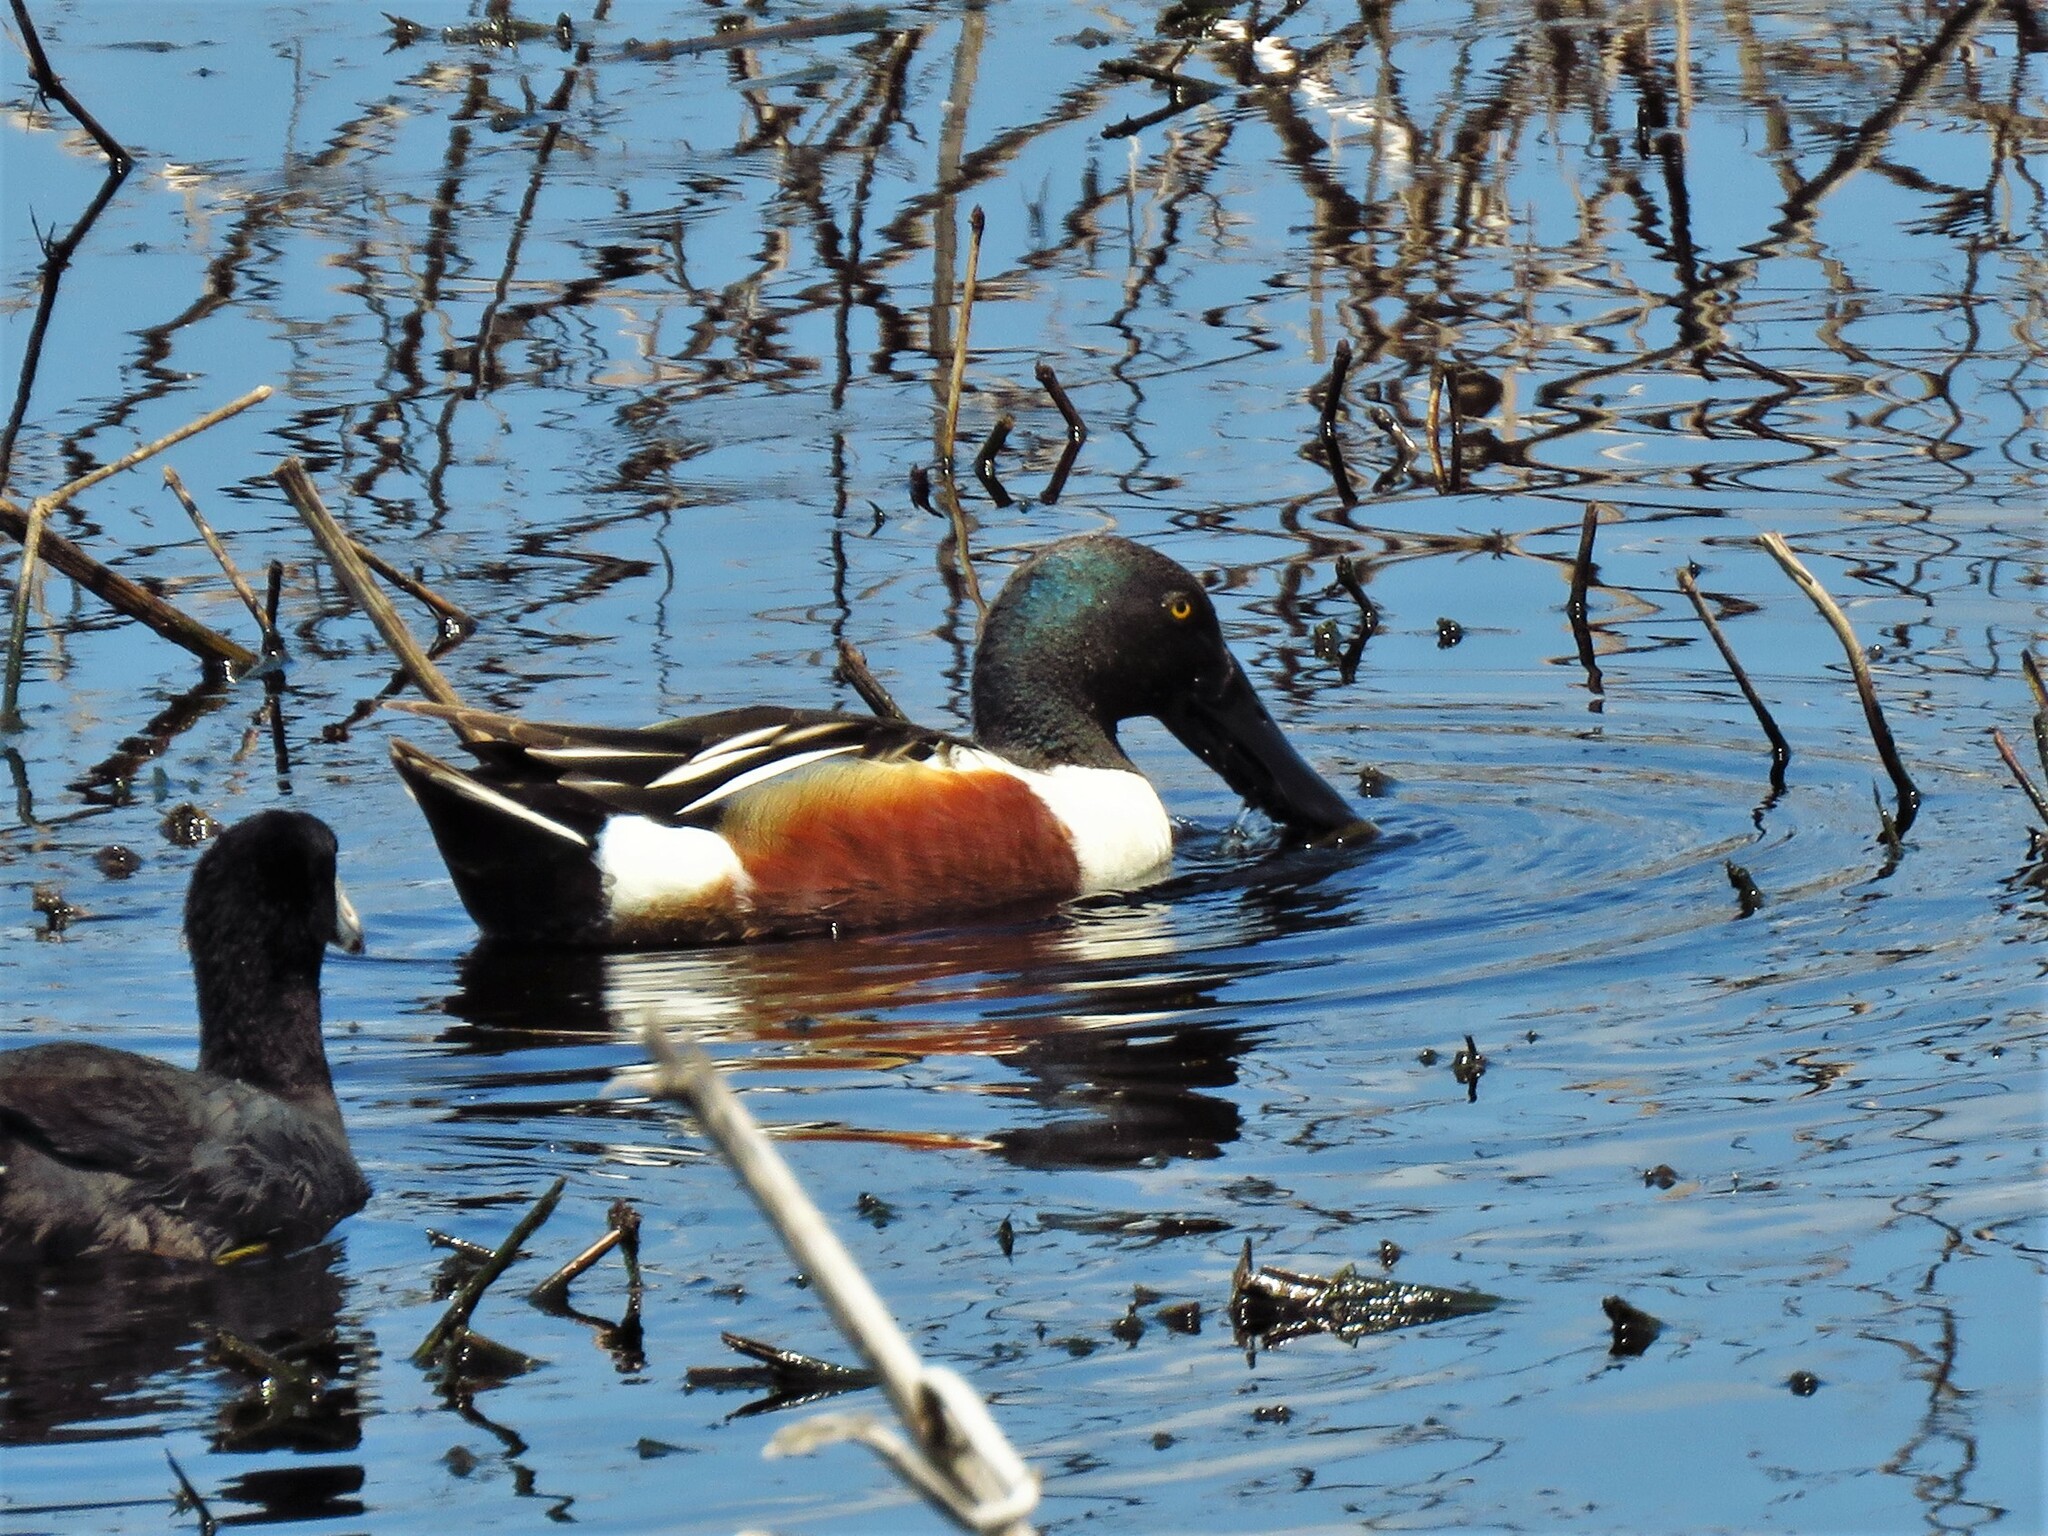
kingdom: Animalia
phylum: Chordata
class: Aves
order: Anseriformes
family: Anatidae
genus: Spatula
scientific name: Spatula clypeata
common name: Northern shoveler
